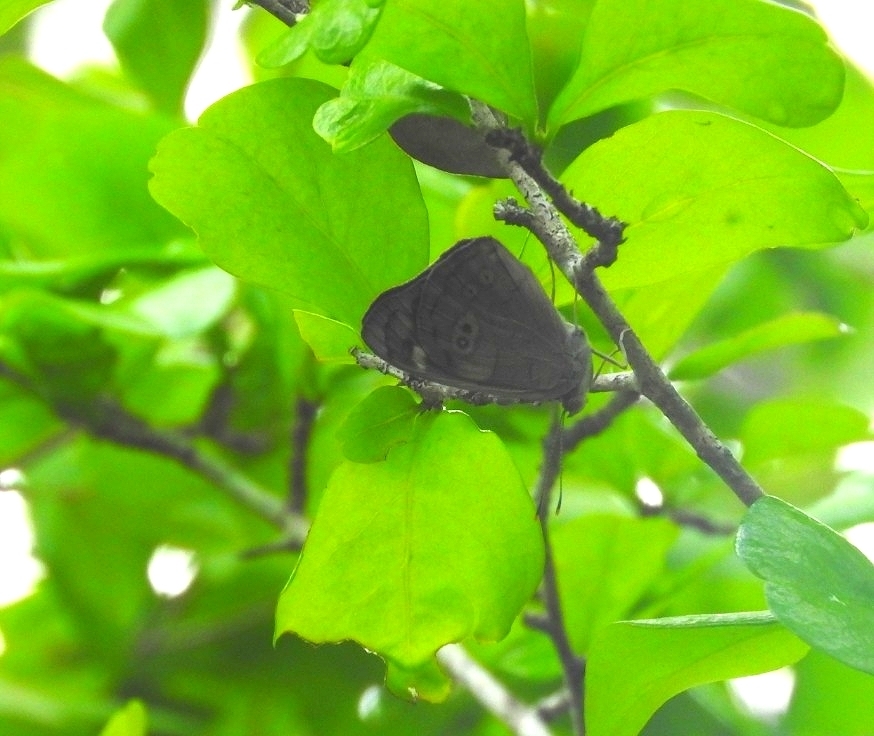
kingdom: Animalia
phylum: Arthropoda
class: Insecta
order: Lepidoptera
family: Nymphalidae
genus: Eunica
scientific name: Eunica monima
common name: Dingy purplewing
